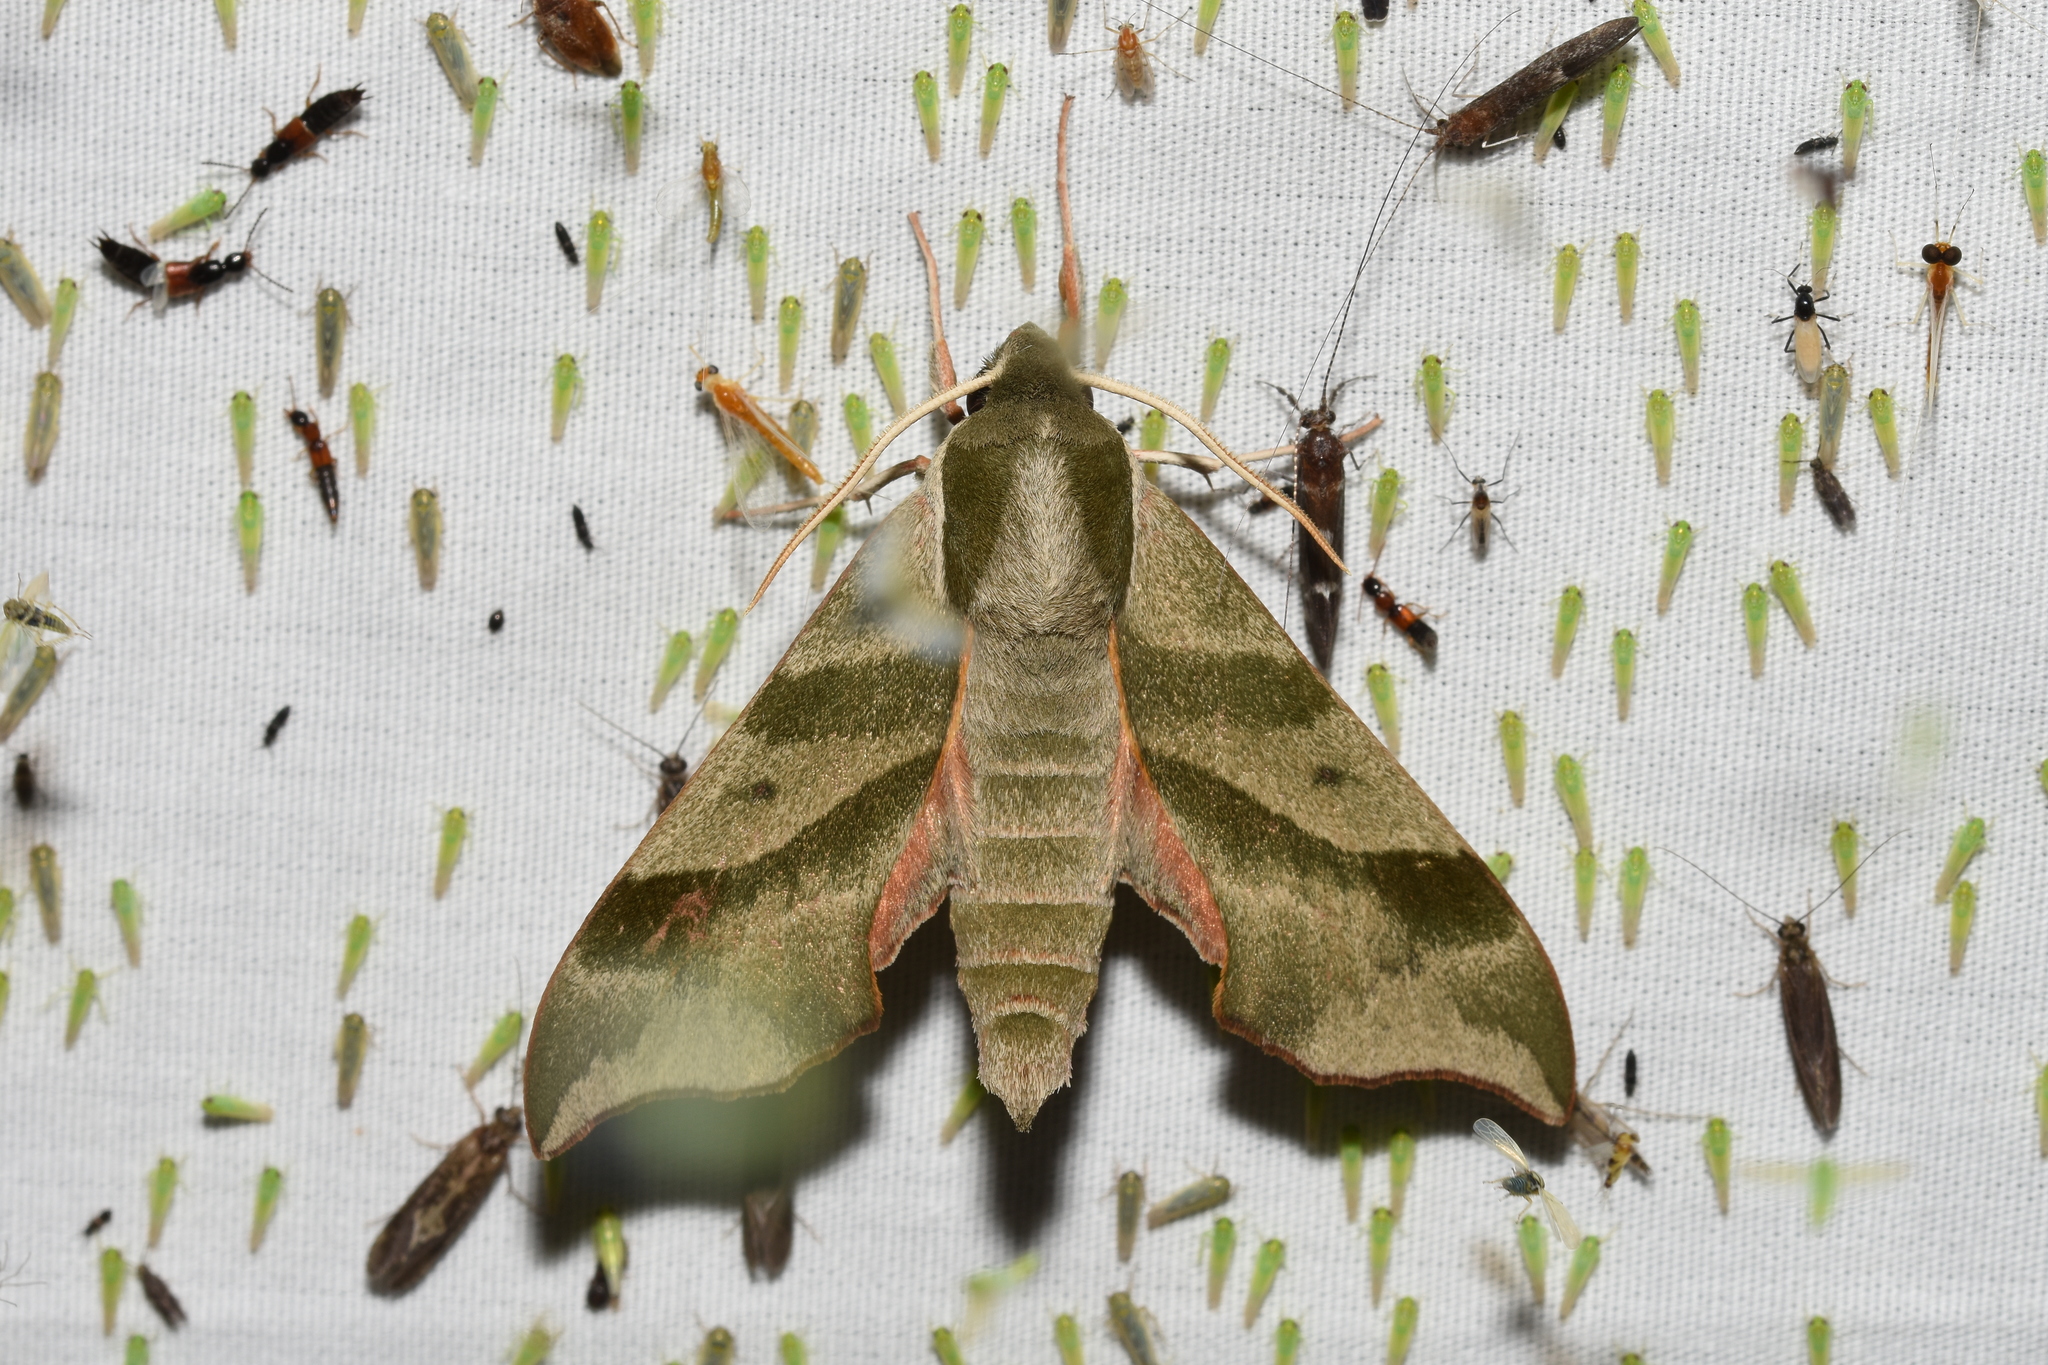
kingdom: Animalia
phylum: Arthropoda
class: Insecta
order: Lepidoptera
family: Sphingidae
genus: Darapsa
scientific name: Darapsa myron
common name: Hog sphinx
